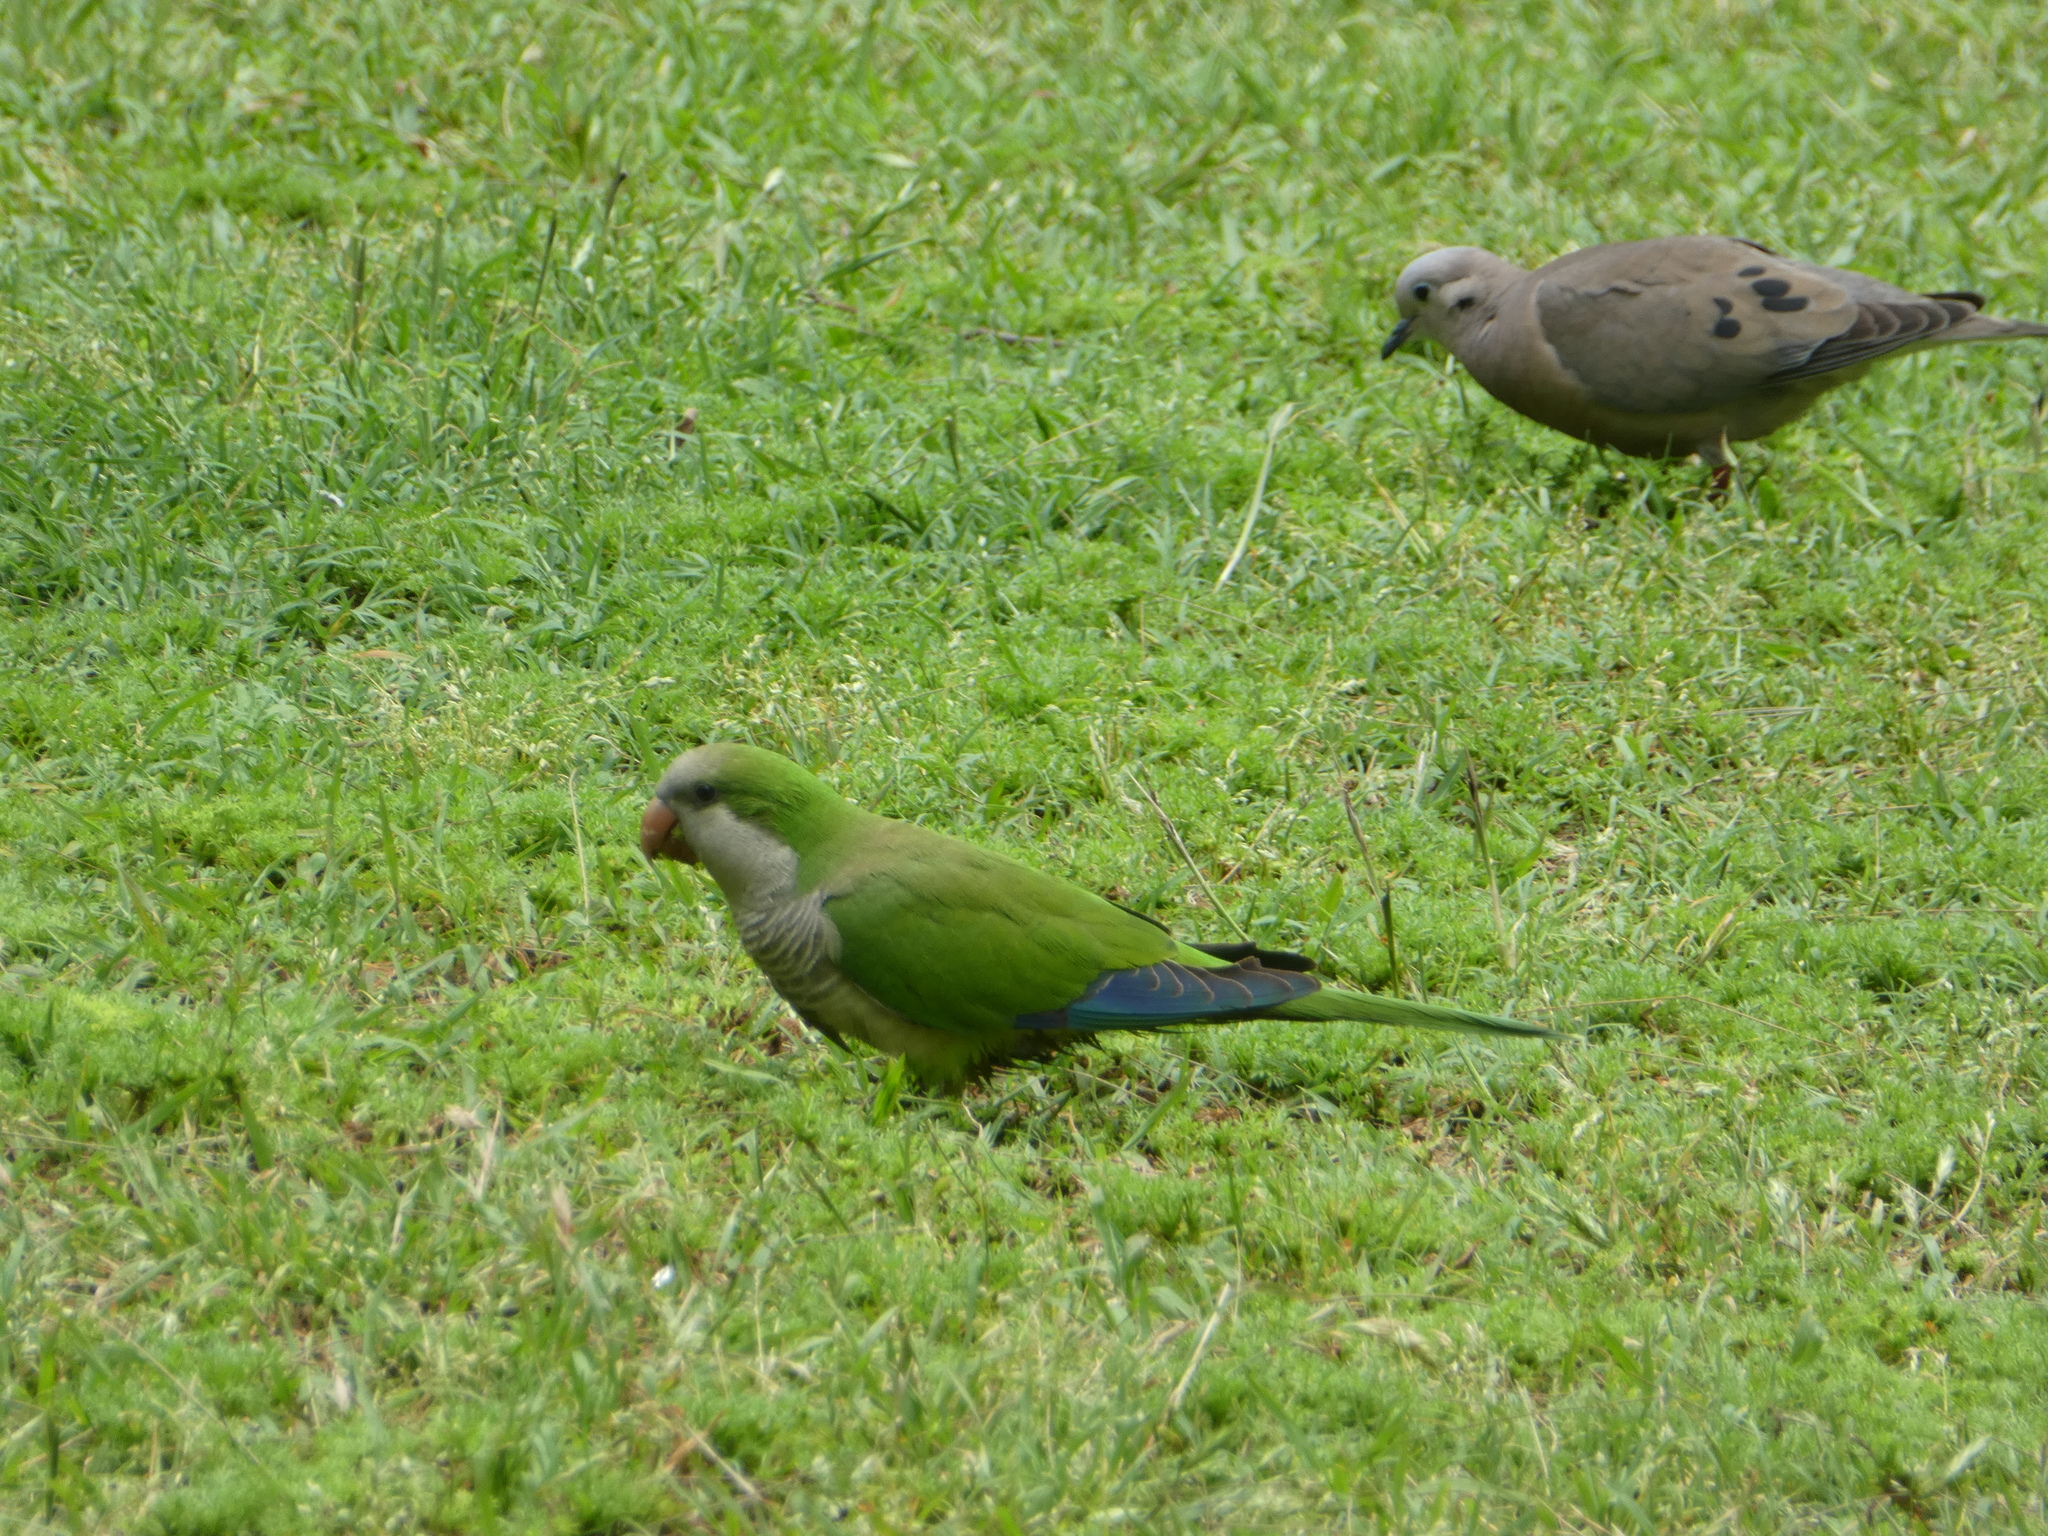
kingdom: Animalia
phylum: Chordata
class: Aves
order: Psittaciformes
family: Psittacidae
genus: Myiopsitta
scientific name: Myiopsitta monachus
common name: Monk parakeet
